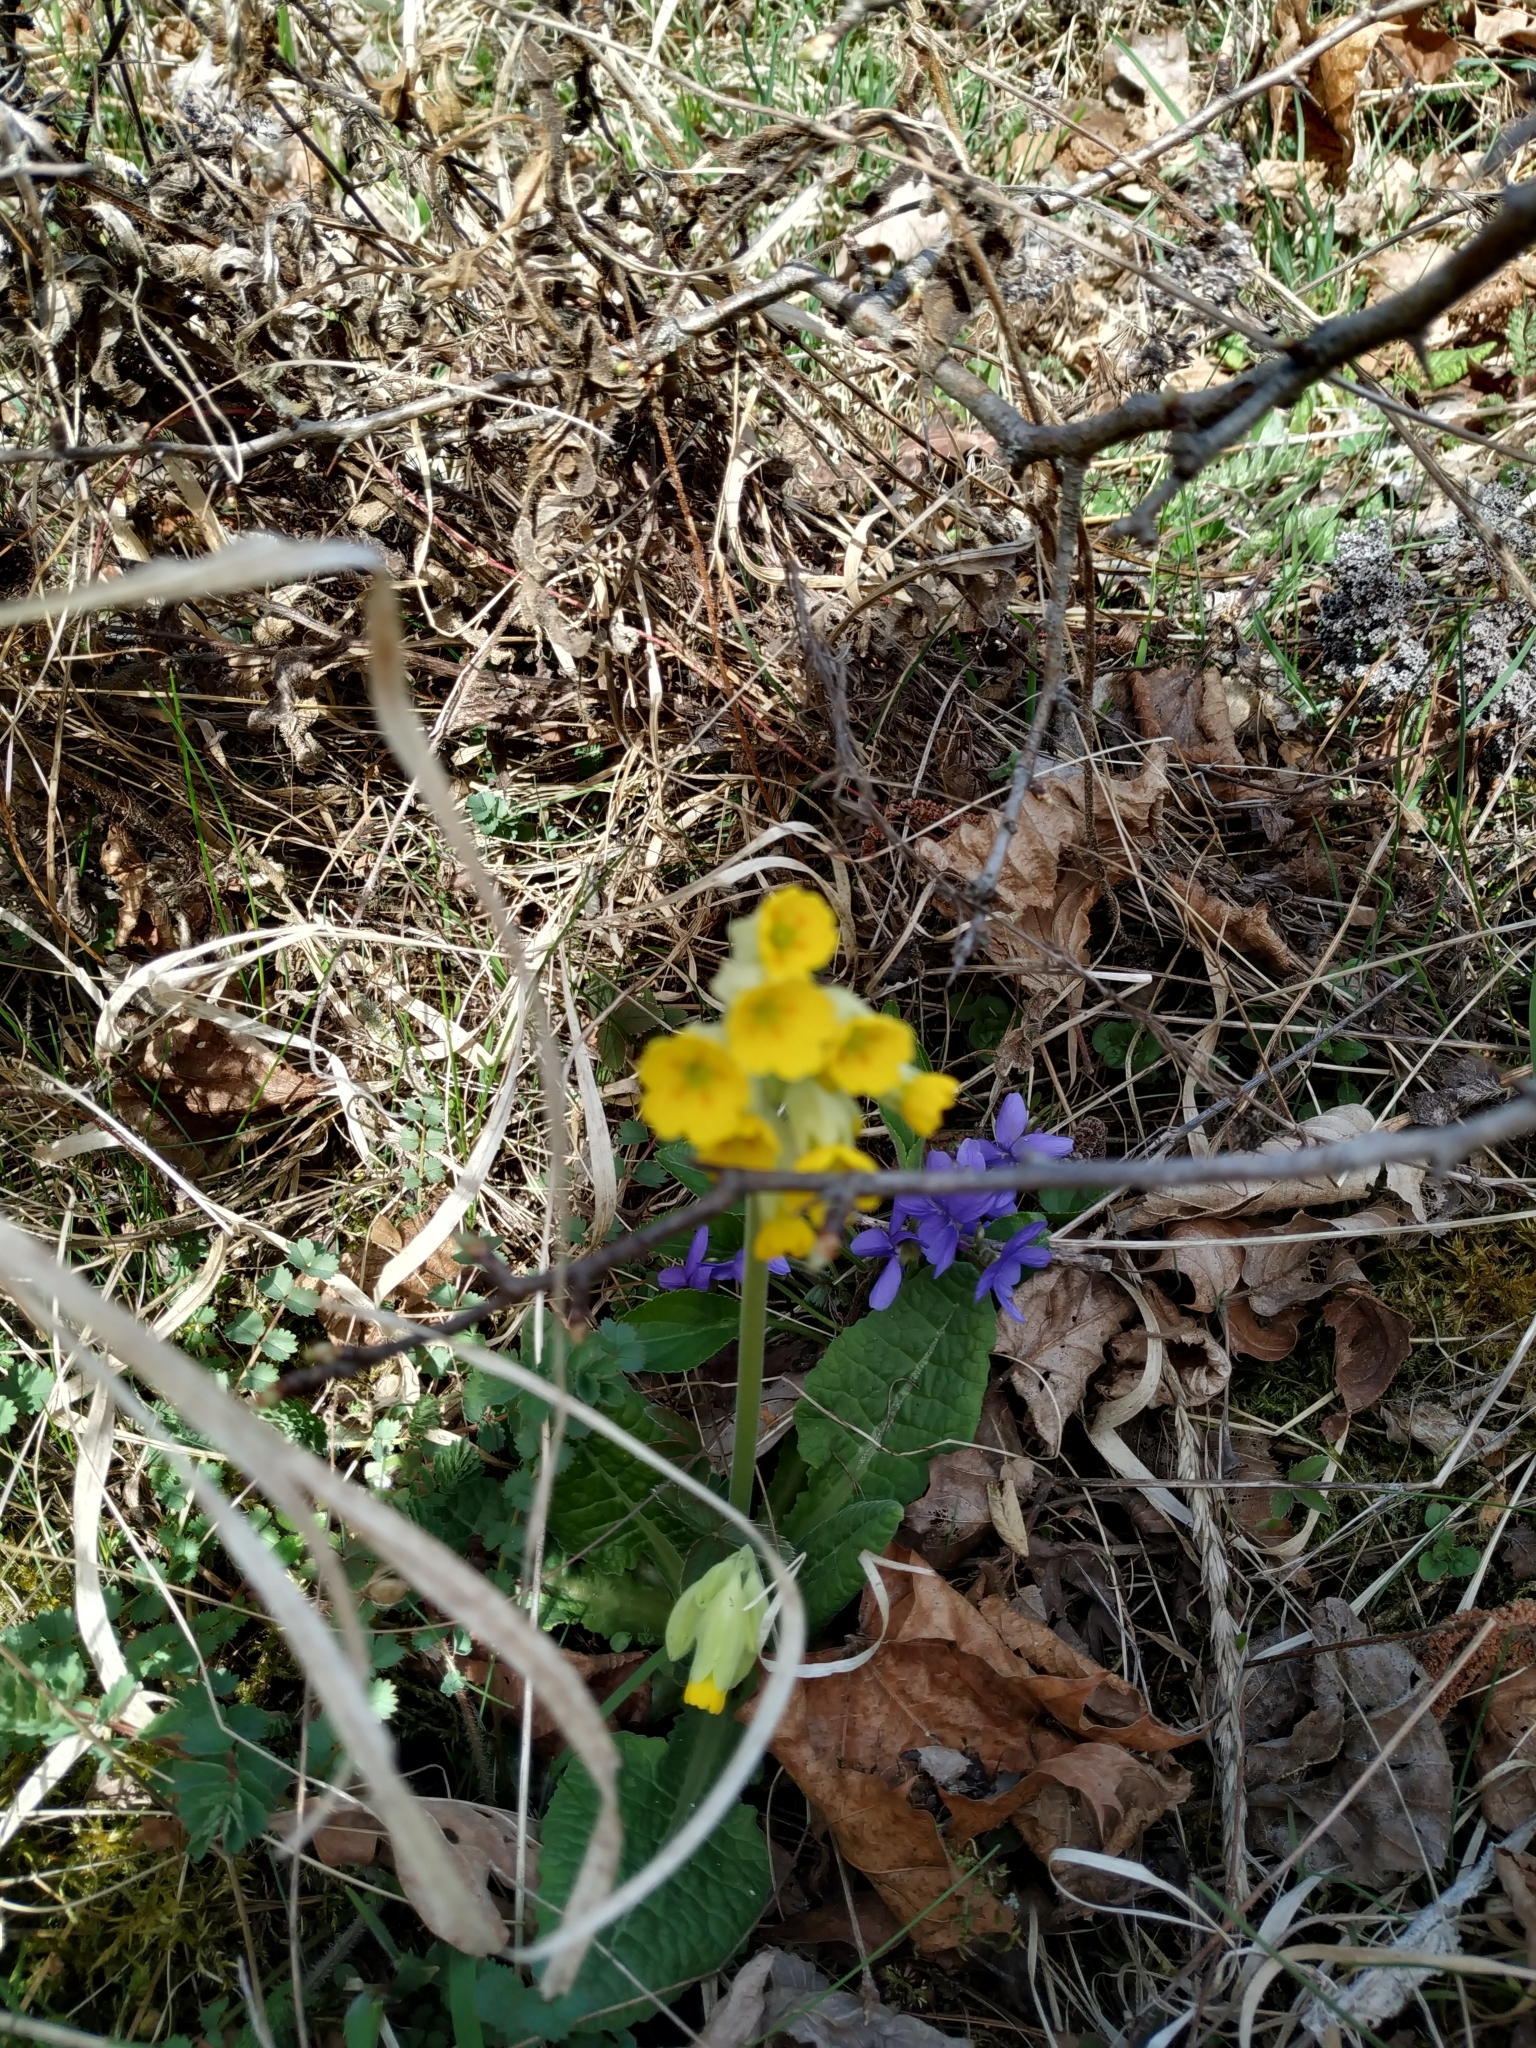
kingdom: Plantae
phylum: Tracheophyta
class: Magnoliopsida
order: Ericales
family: Primulaceae
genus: Primula
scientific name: Primula veris
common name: Cowslip
